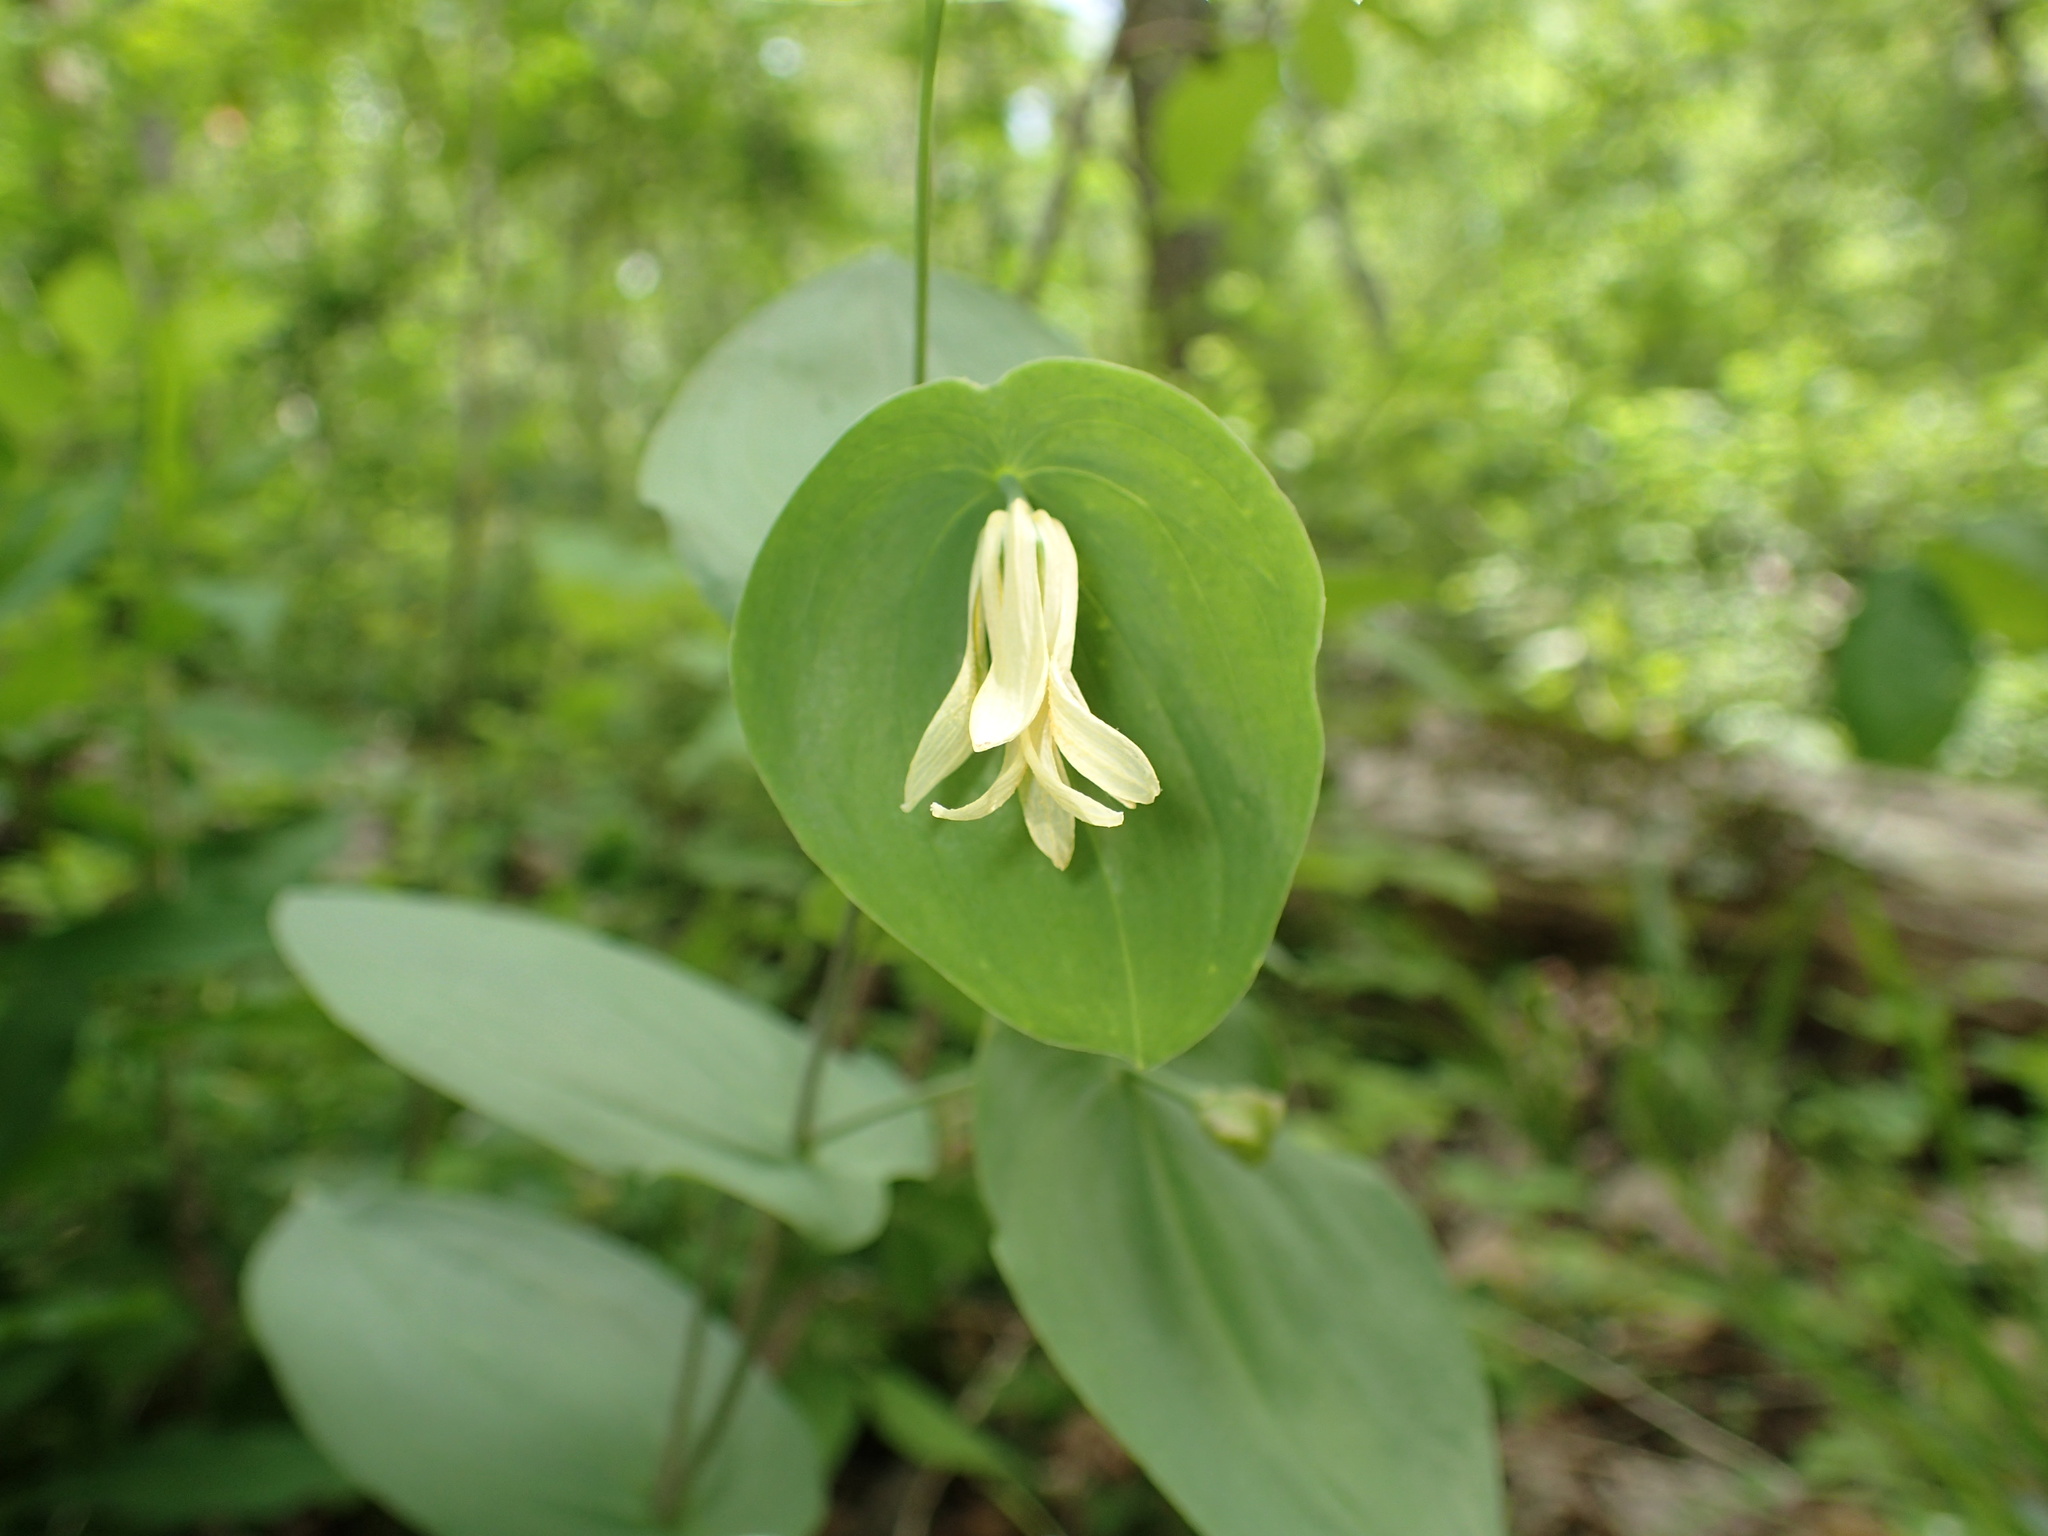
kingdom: Plantae
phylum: Tracheophyta
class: Liliopsida
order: Liliales
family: Colchicaceae
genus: Uvularia
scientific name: Uvularia perfoliata
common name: Perfoliate bellwort
